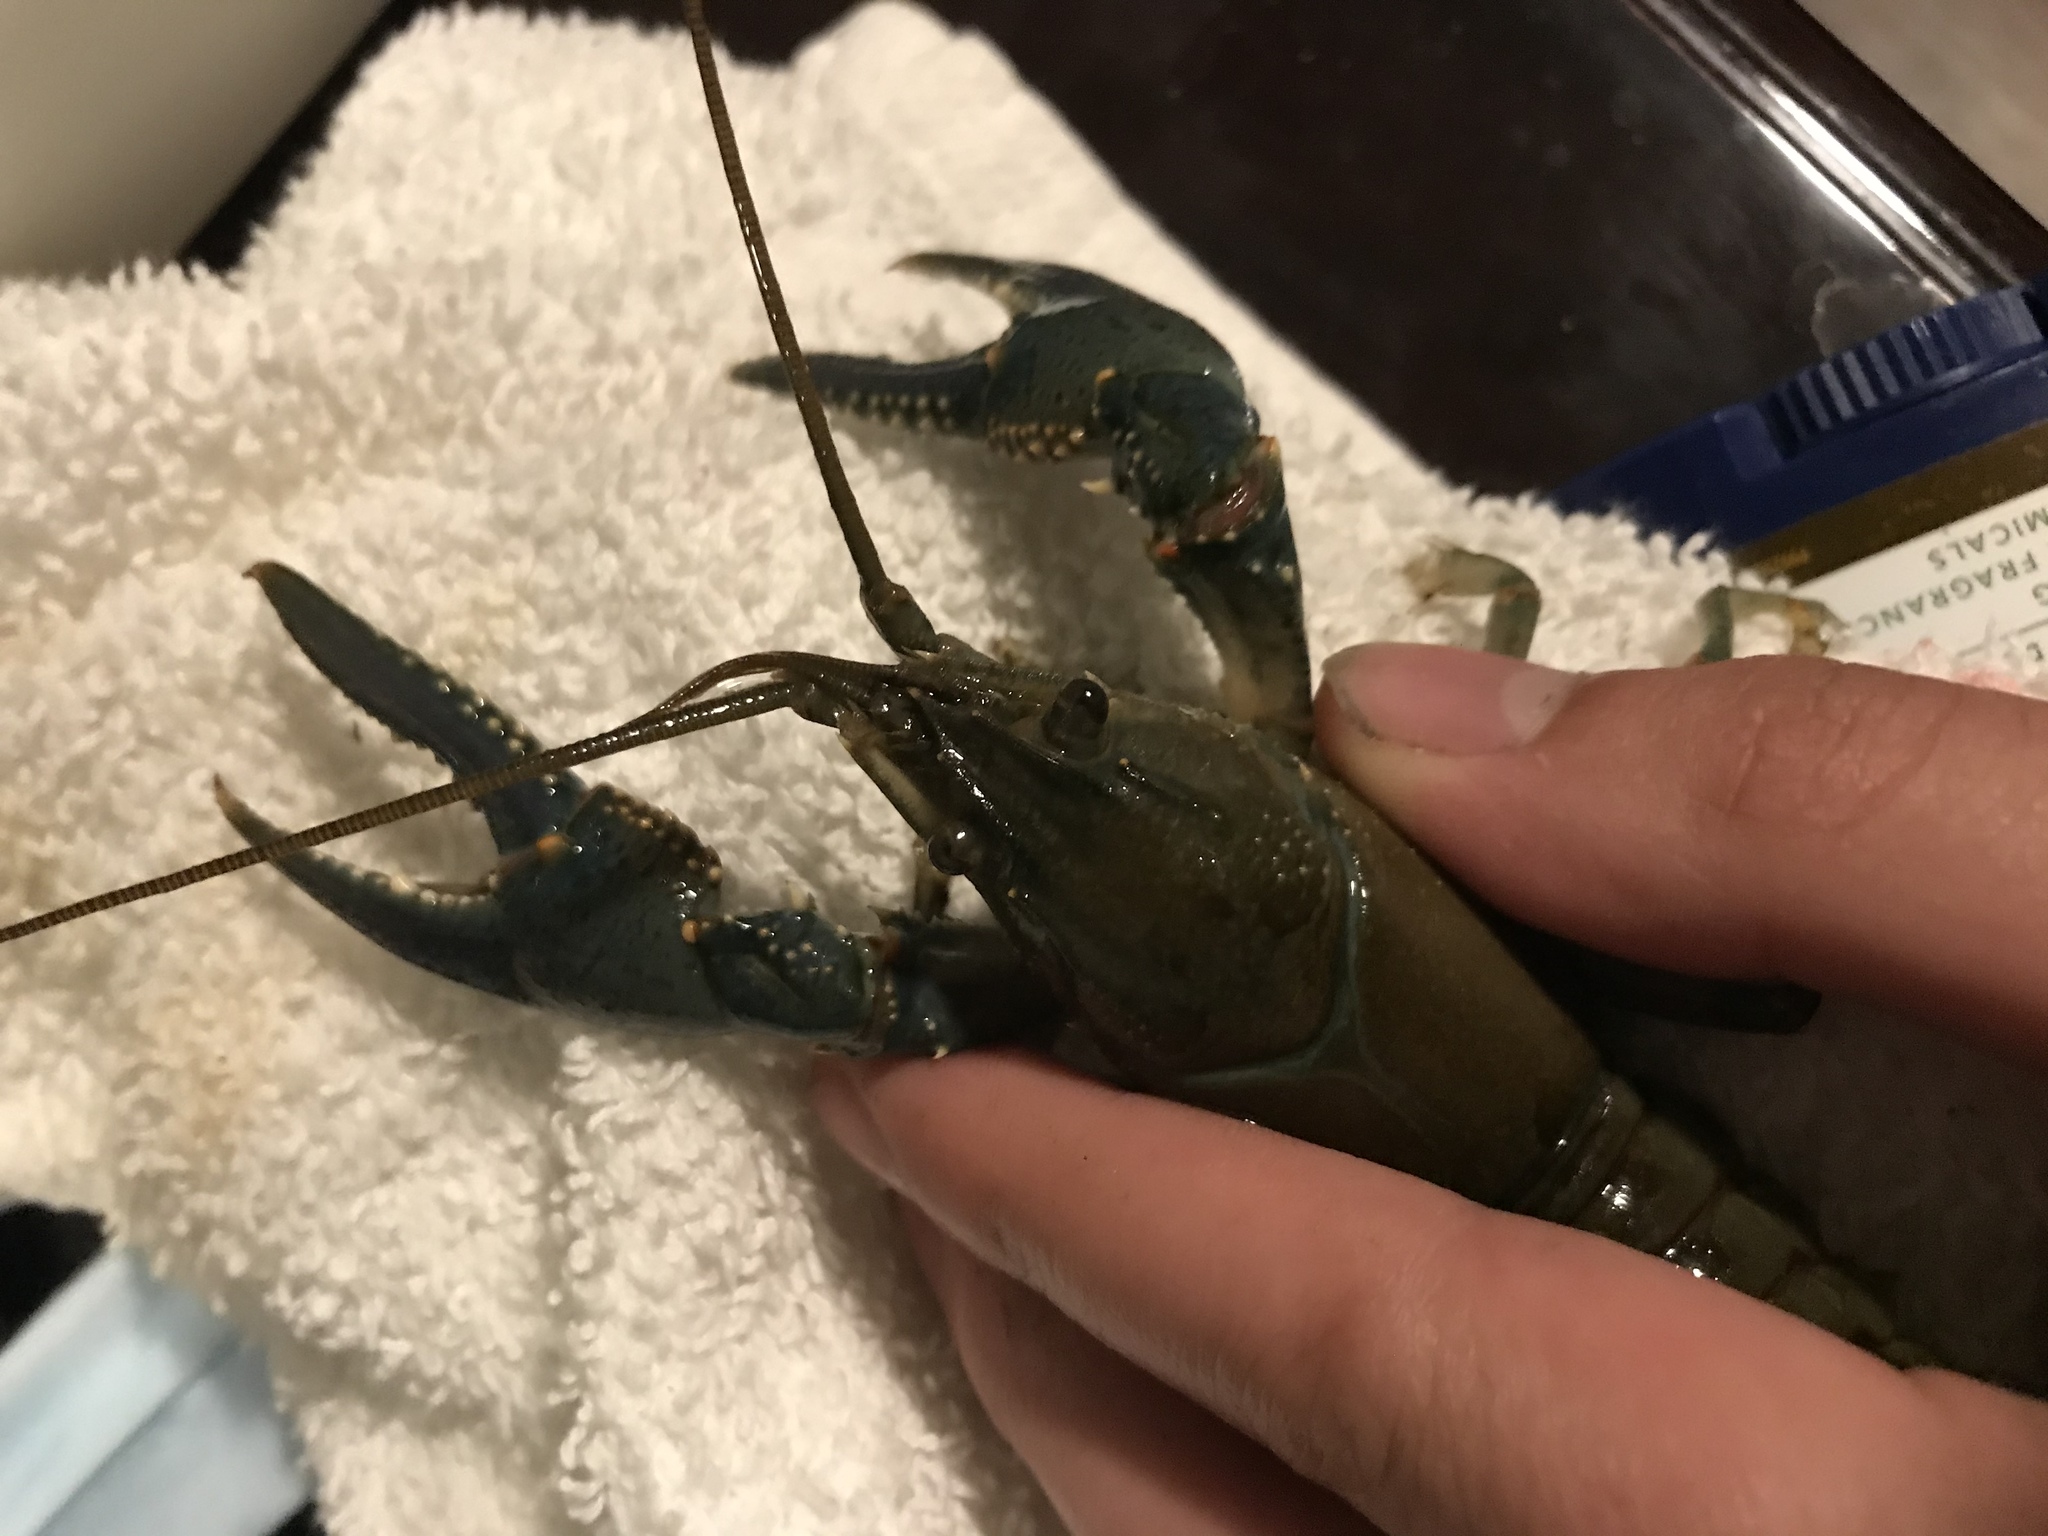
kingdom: Animalia
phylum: Arthropoda
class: Malacostraca
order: Decapoda
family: Cambaridae
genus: Faxonius
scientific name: Faxonius virilis
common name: Virile crayfish
